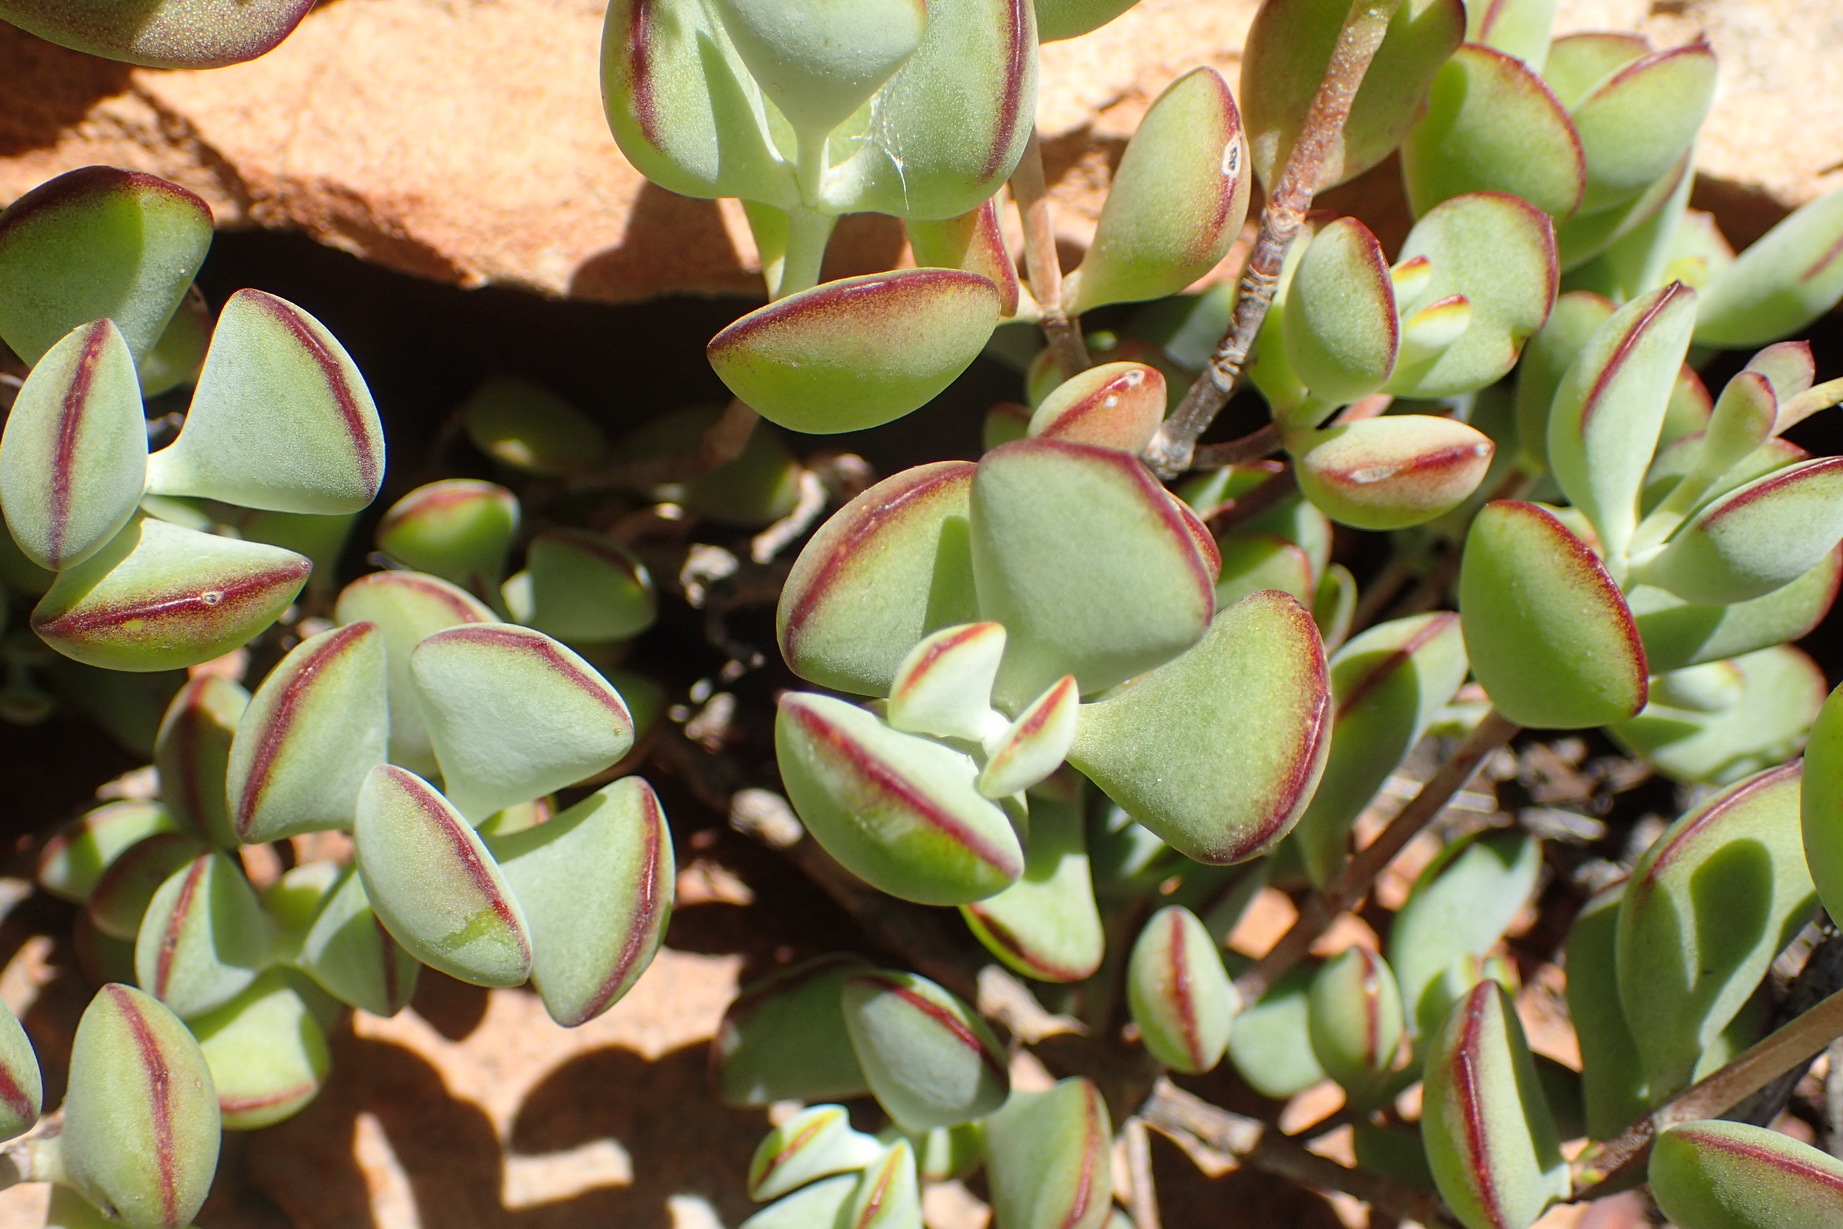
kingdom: Plantae
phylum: Tracheophyta
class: Magnoliopsida
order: Saxifragales
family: Crassulaceae
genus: Cotyledon
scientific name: Cotyledon woodii
